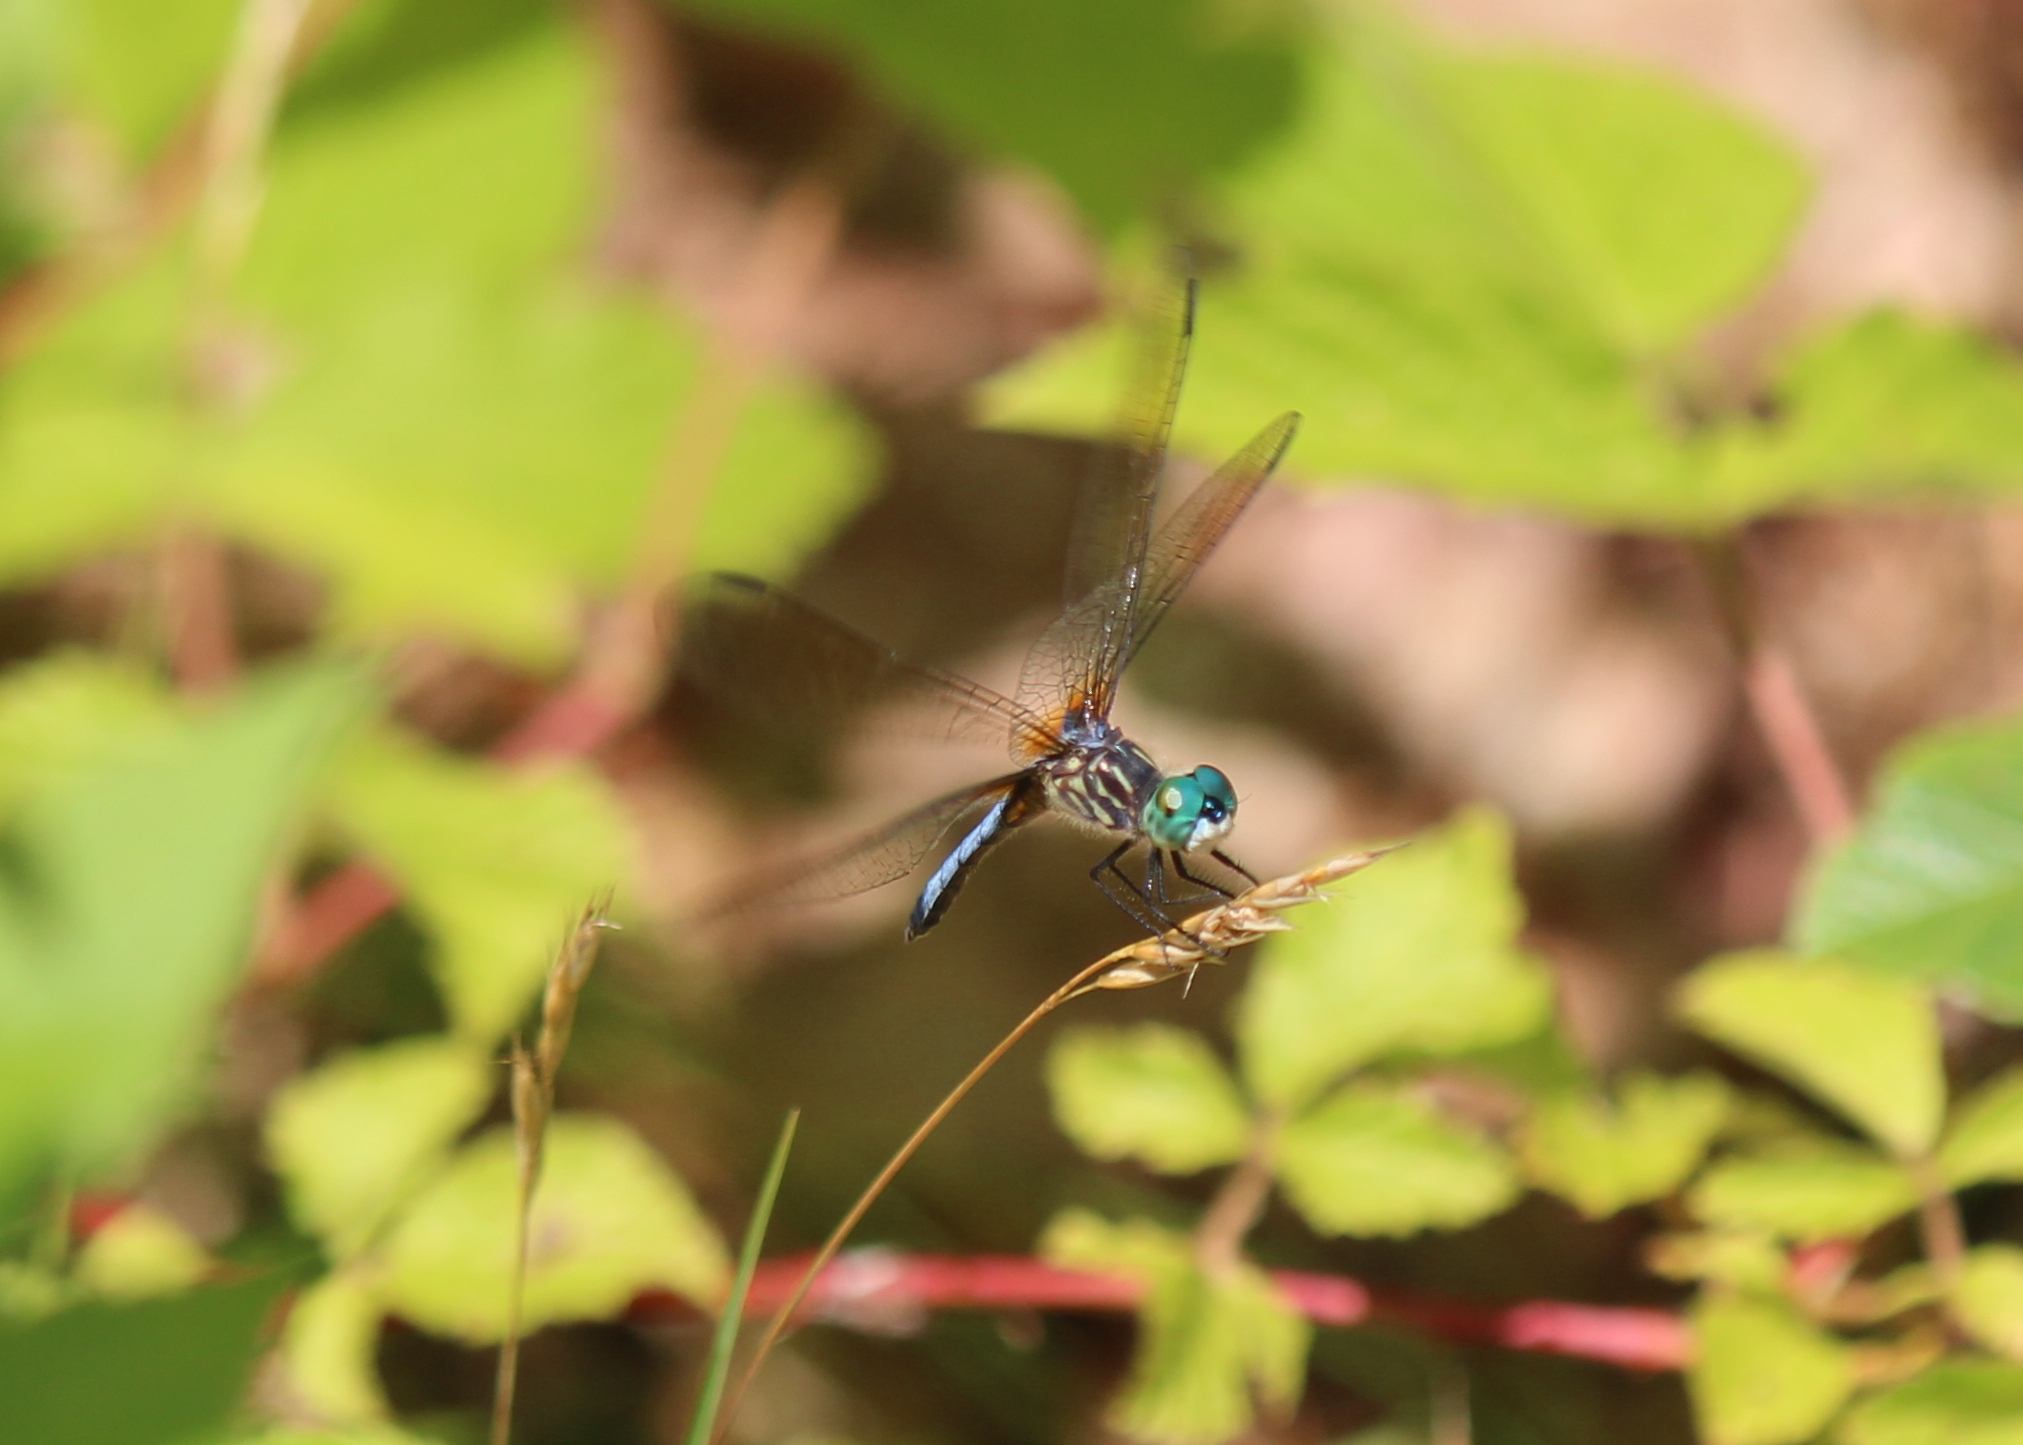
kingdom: Animalia
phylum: Arthropoda
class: Insecta
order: Odonata
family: Libellulidae
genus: Pachydiplax
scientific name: Pachydiplax longipennis
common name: Blue dasher
